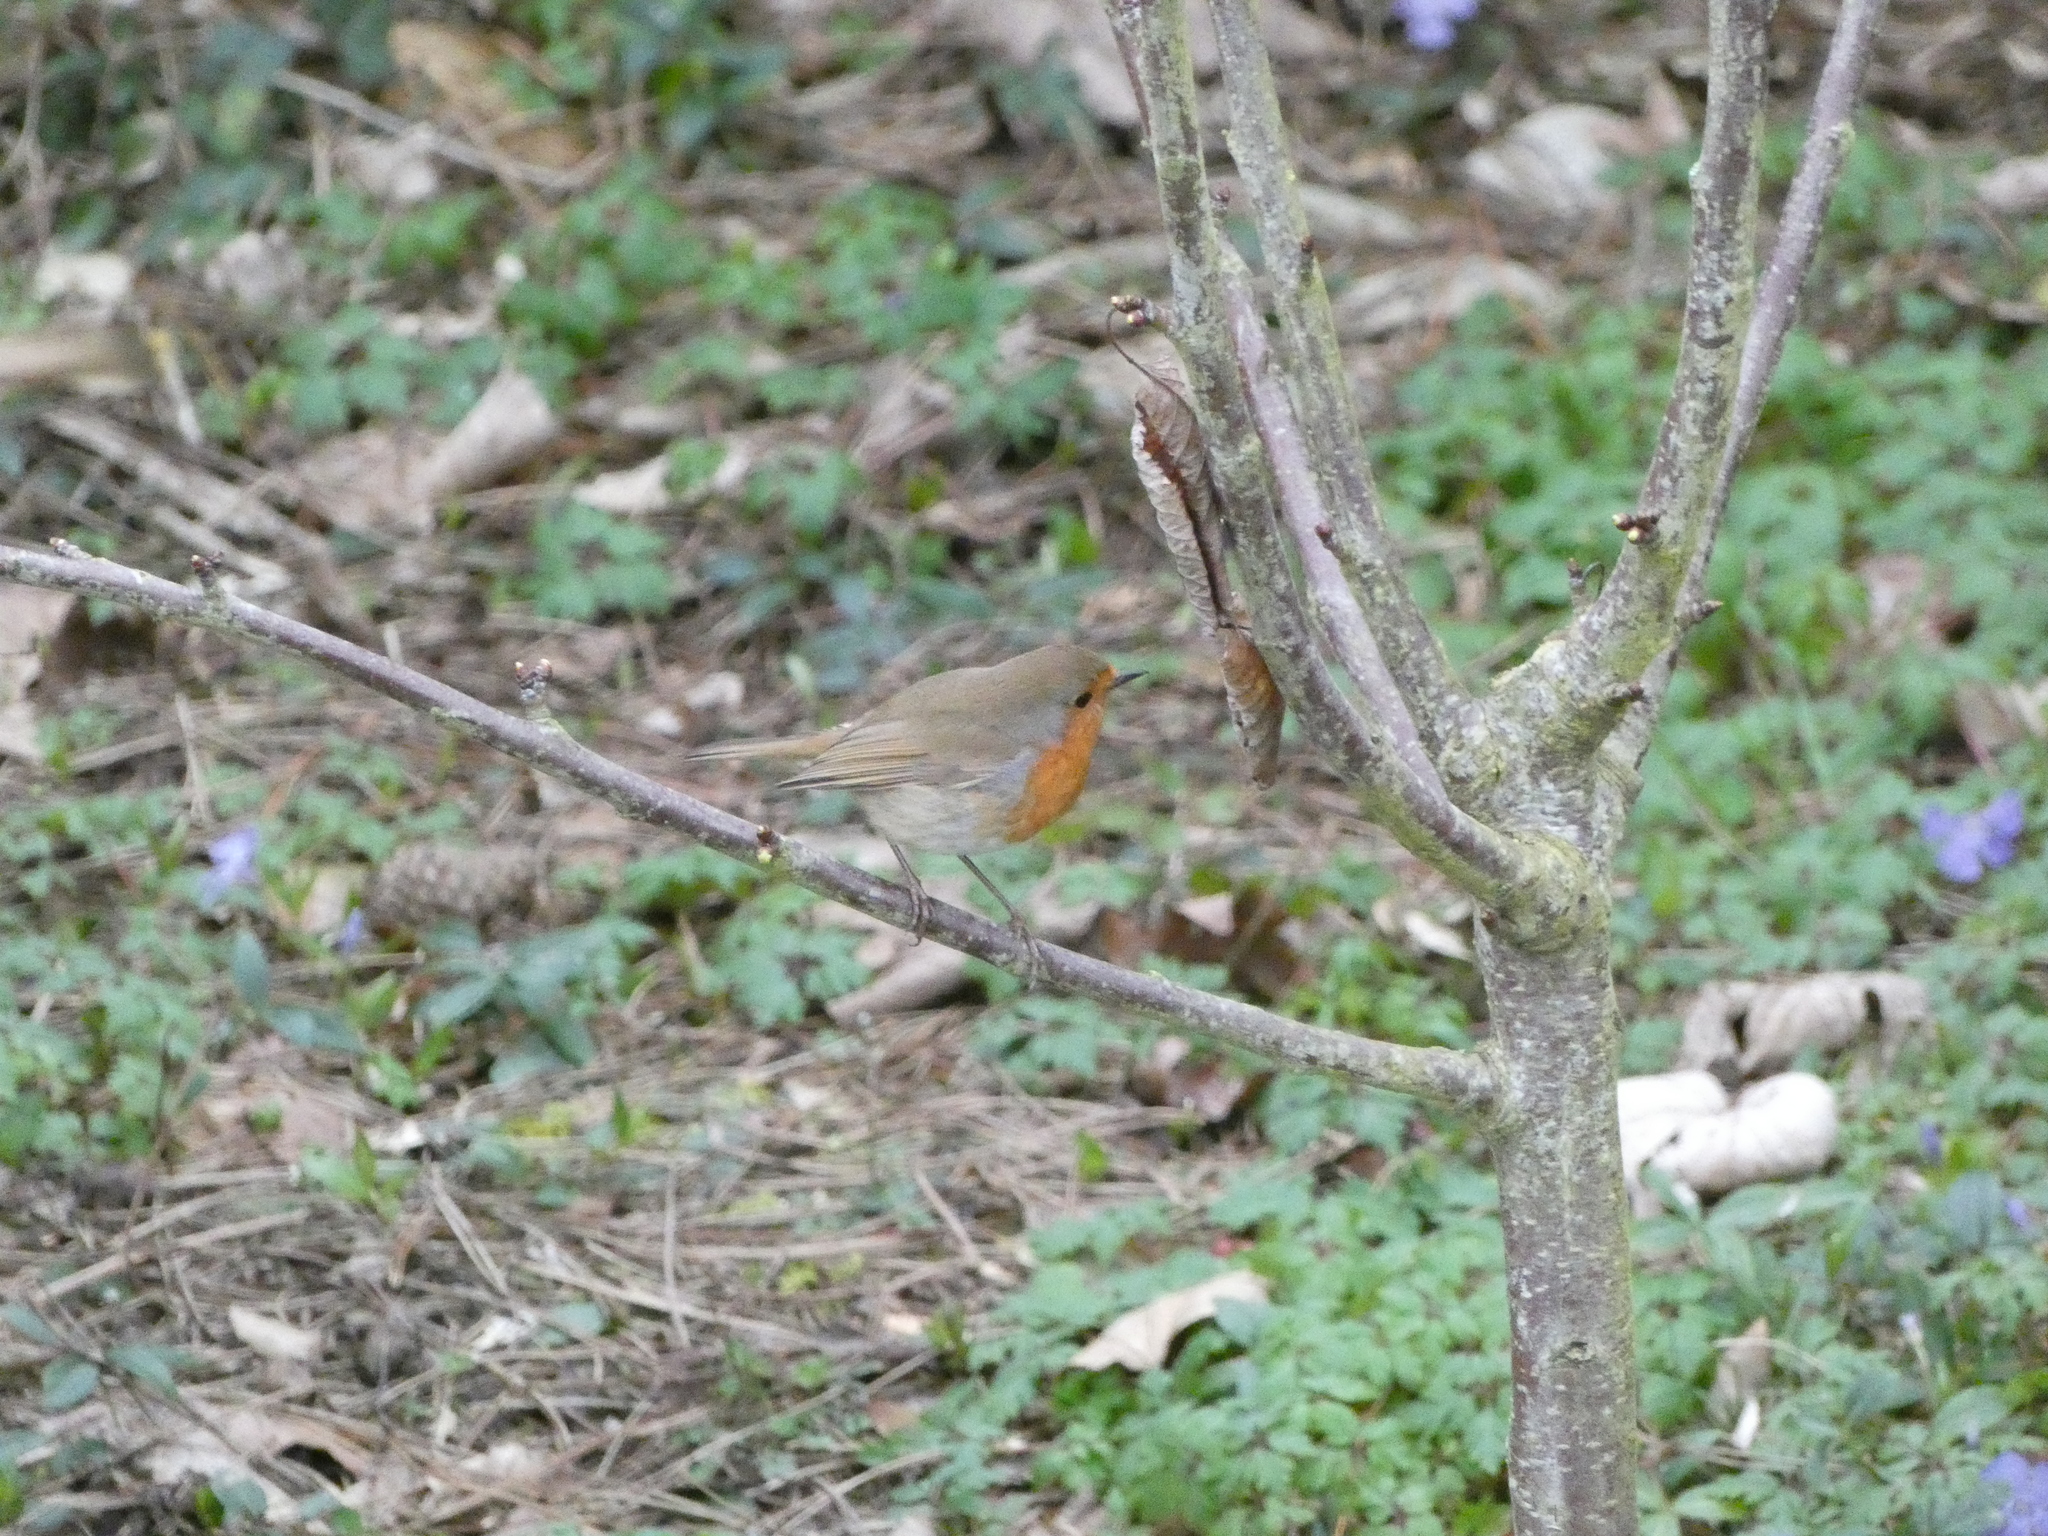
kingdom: Animalia
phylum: Chordata
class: Aves
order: Passeriformes
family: Muscicapidae
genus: Erithacus
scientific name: Erithacus rubecula
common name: European robin
